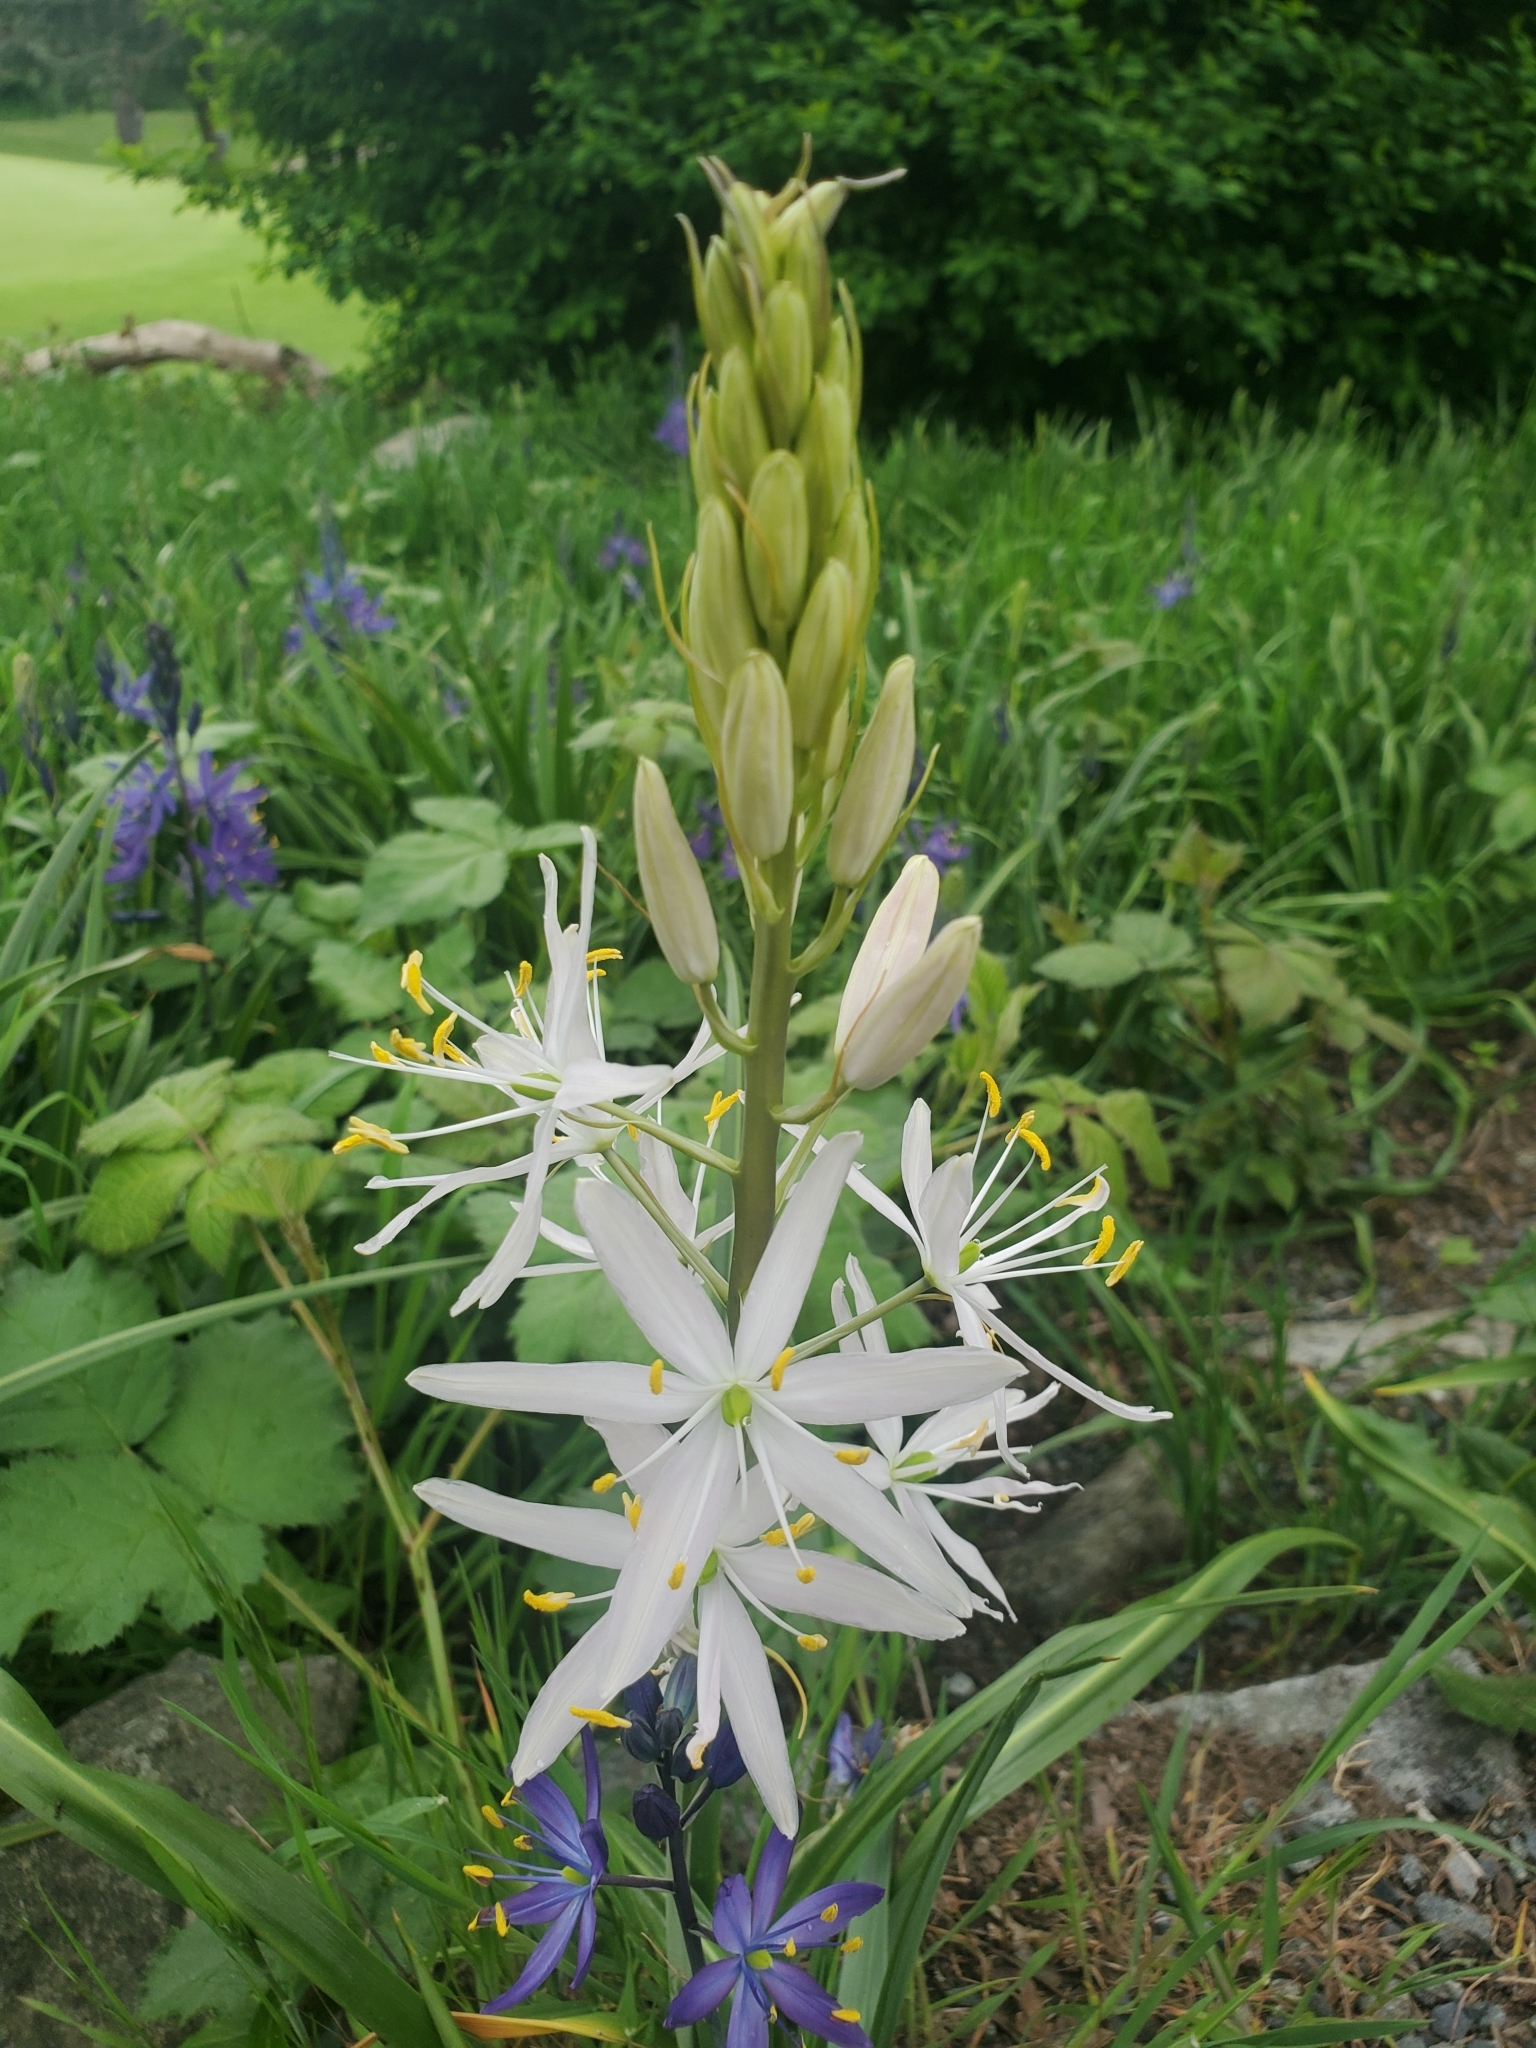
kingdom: Plantae
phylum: Tracheophyta
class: Liliopsida
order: Asparagales
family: Asparagaceae
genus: Camassia
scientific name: Camassia leichtlinii
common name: Leichtlin's camas
